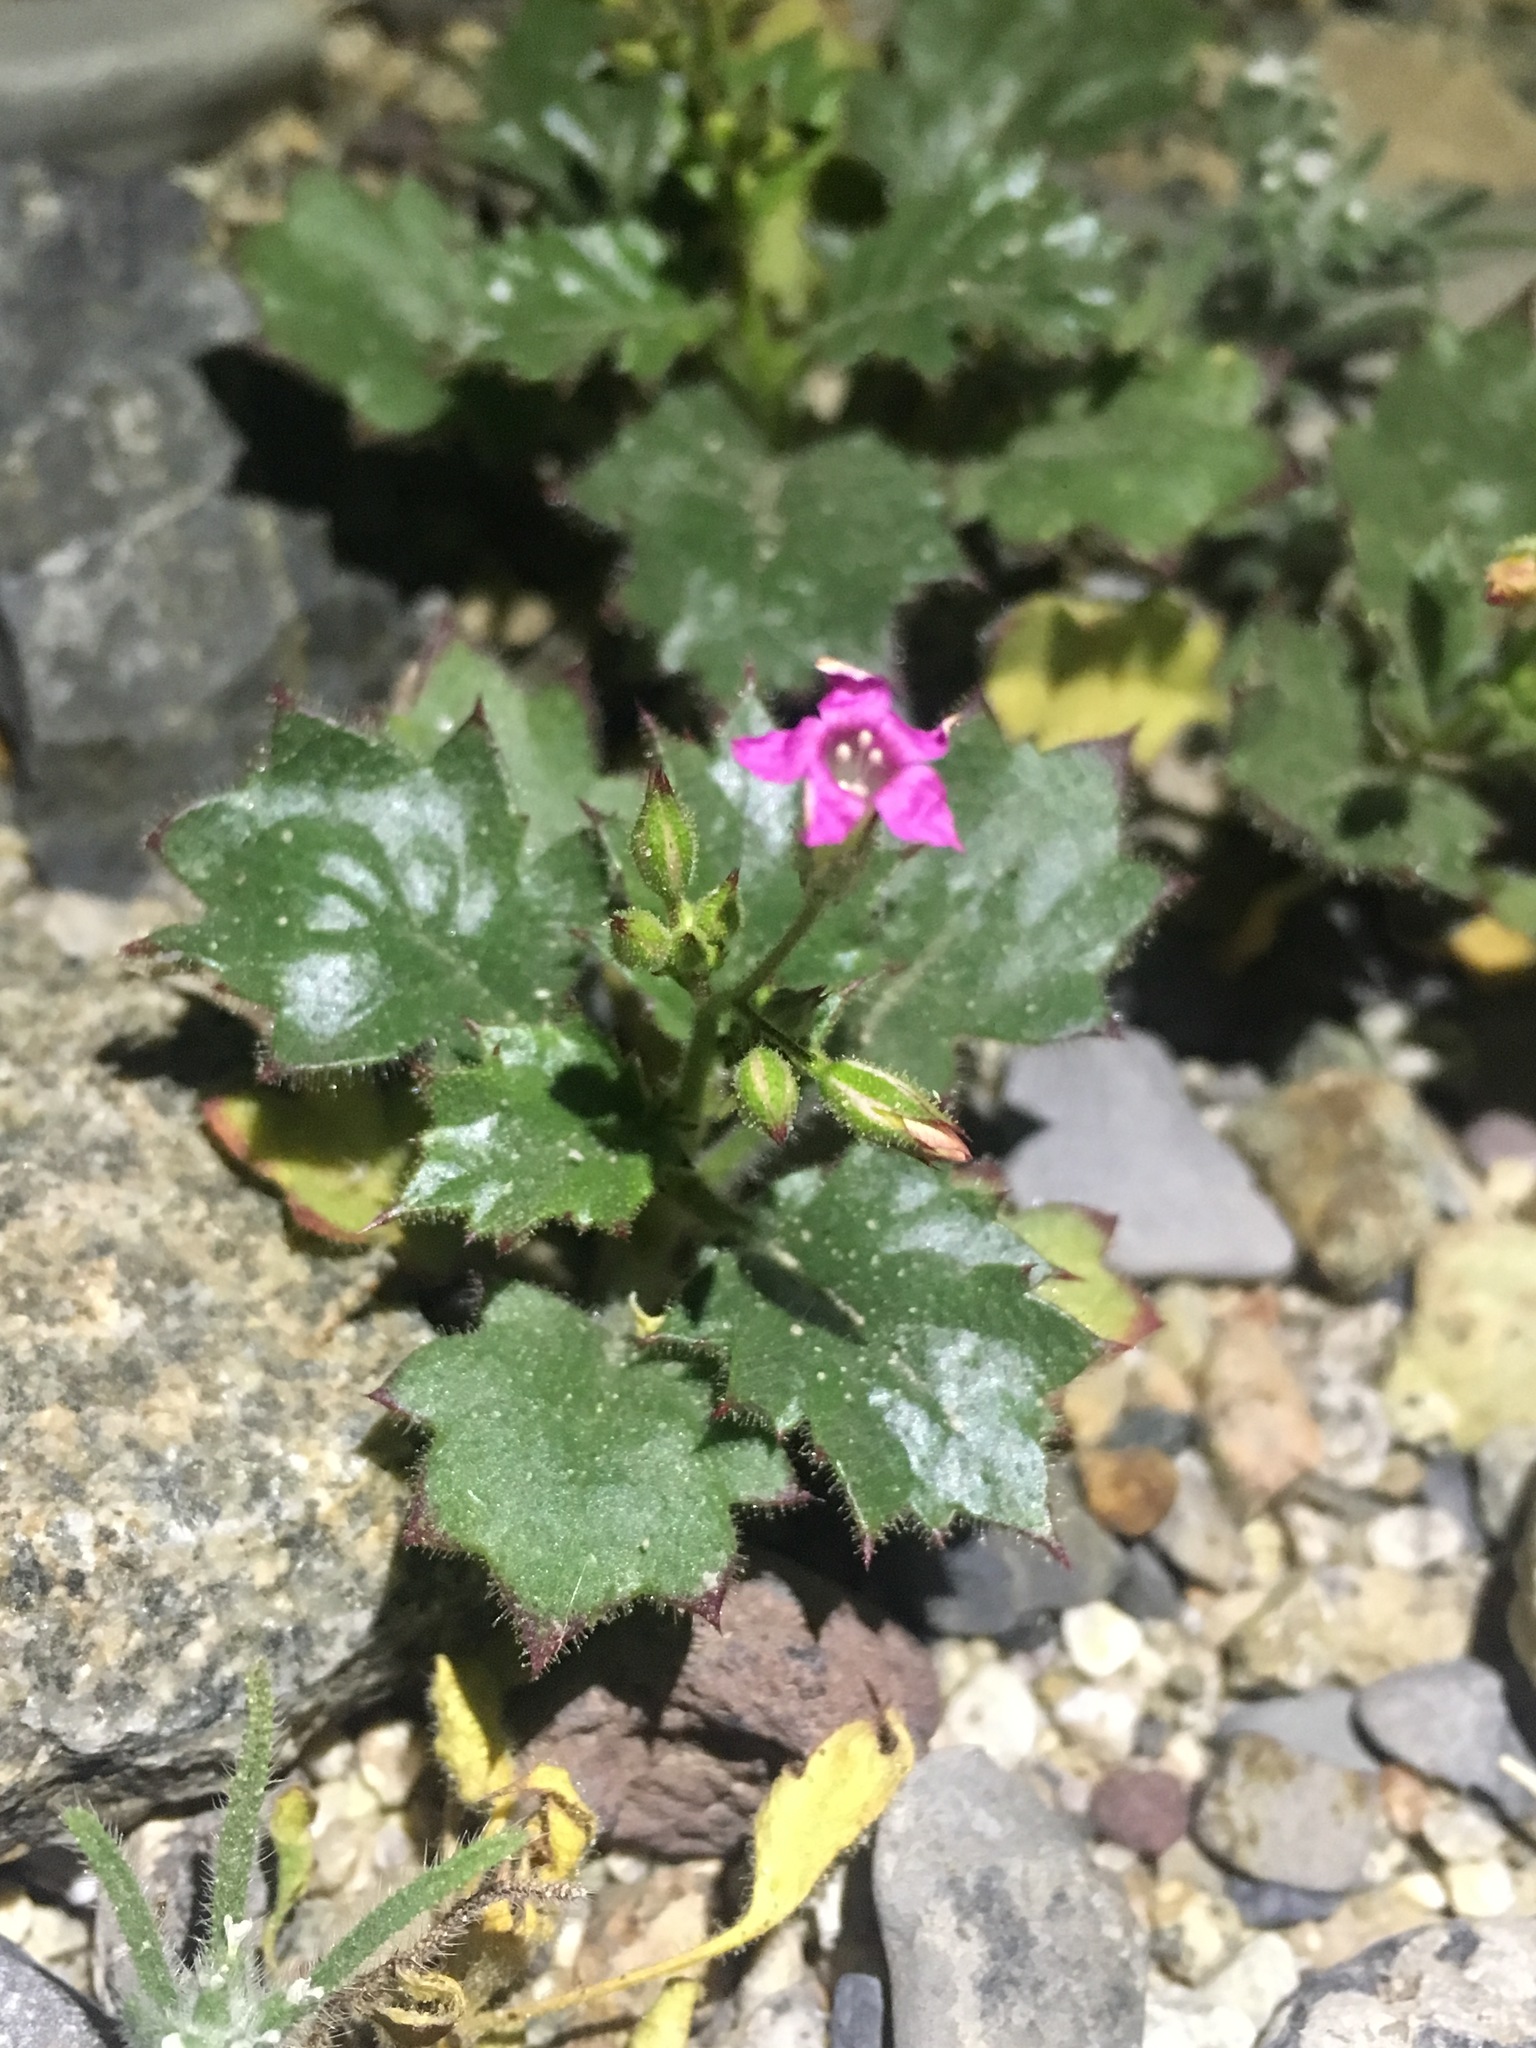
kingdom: Plantae
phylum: Tracheophyta
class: Magnoliopsida
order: Ericales
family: Polemoniaceae
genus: Aliciella
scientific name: Aliciella latifolia
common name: Broad-leaf gilia
